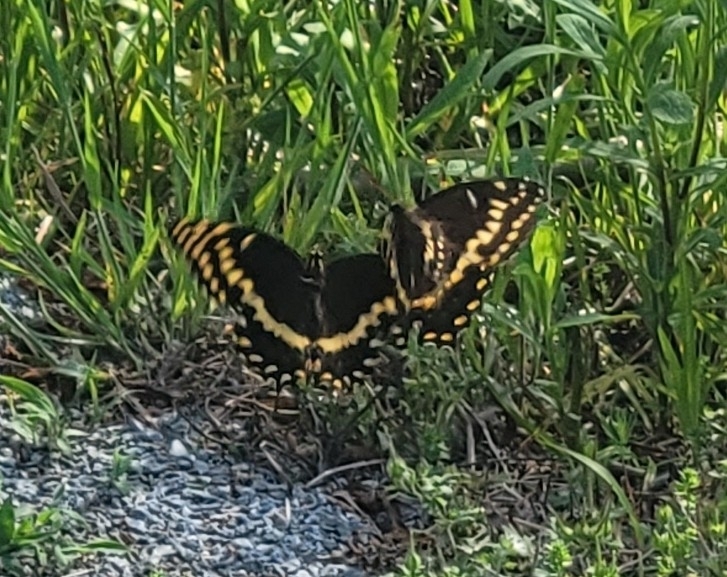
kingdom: Animalia
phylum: Arthropoda
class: Insecta
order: Lepidoptera
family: Papilionidae
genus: Papilio
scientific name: Papilio palamedes
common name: Palamedes swallowtail
